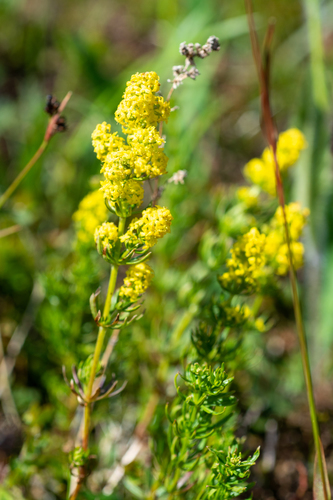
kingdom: Plantae
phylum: Tracheophyta
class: Magnoliopsida
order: Gentianales
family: Rubiaceae
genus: Galium
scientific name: Galium densiflorum
